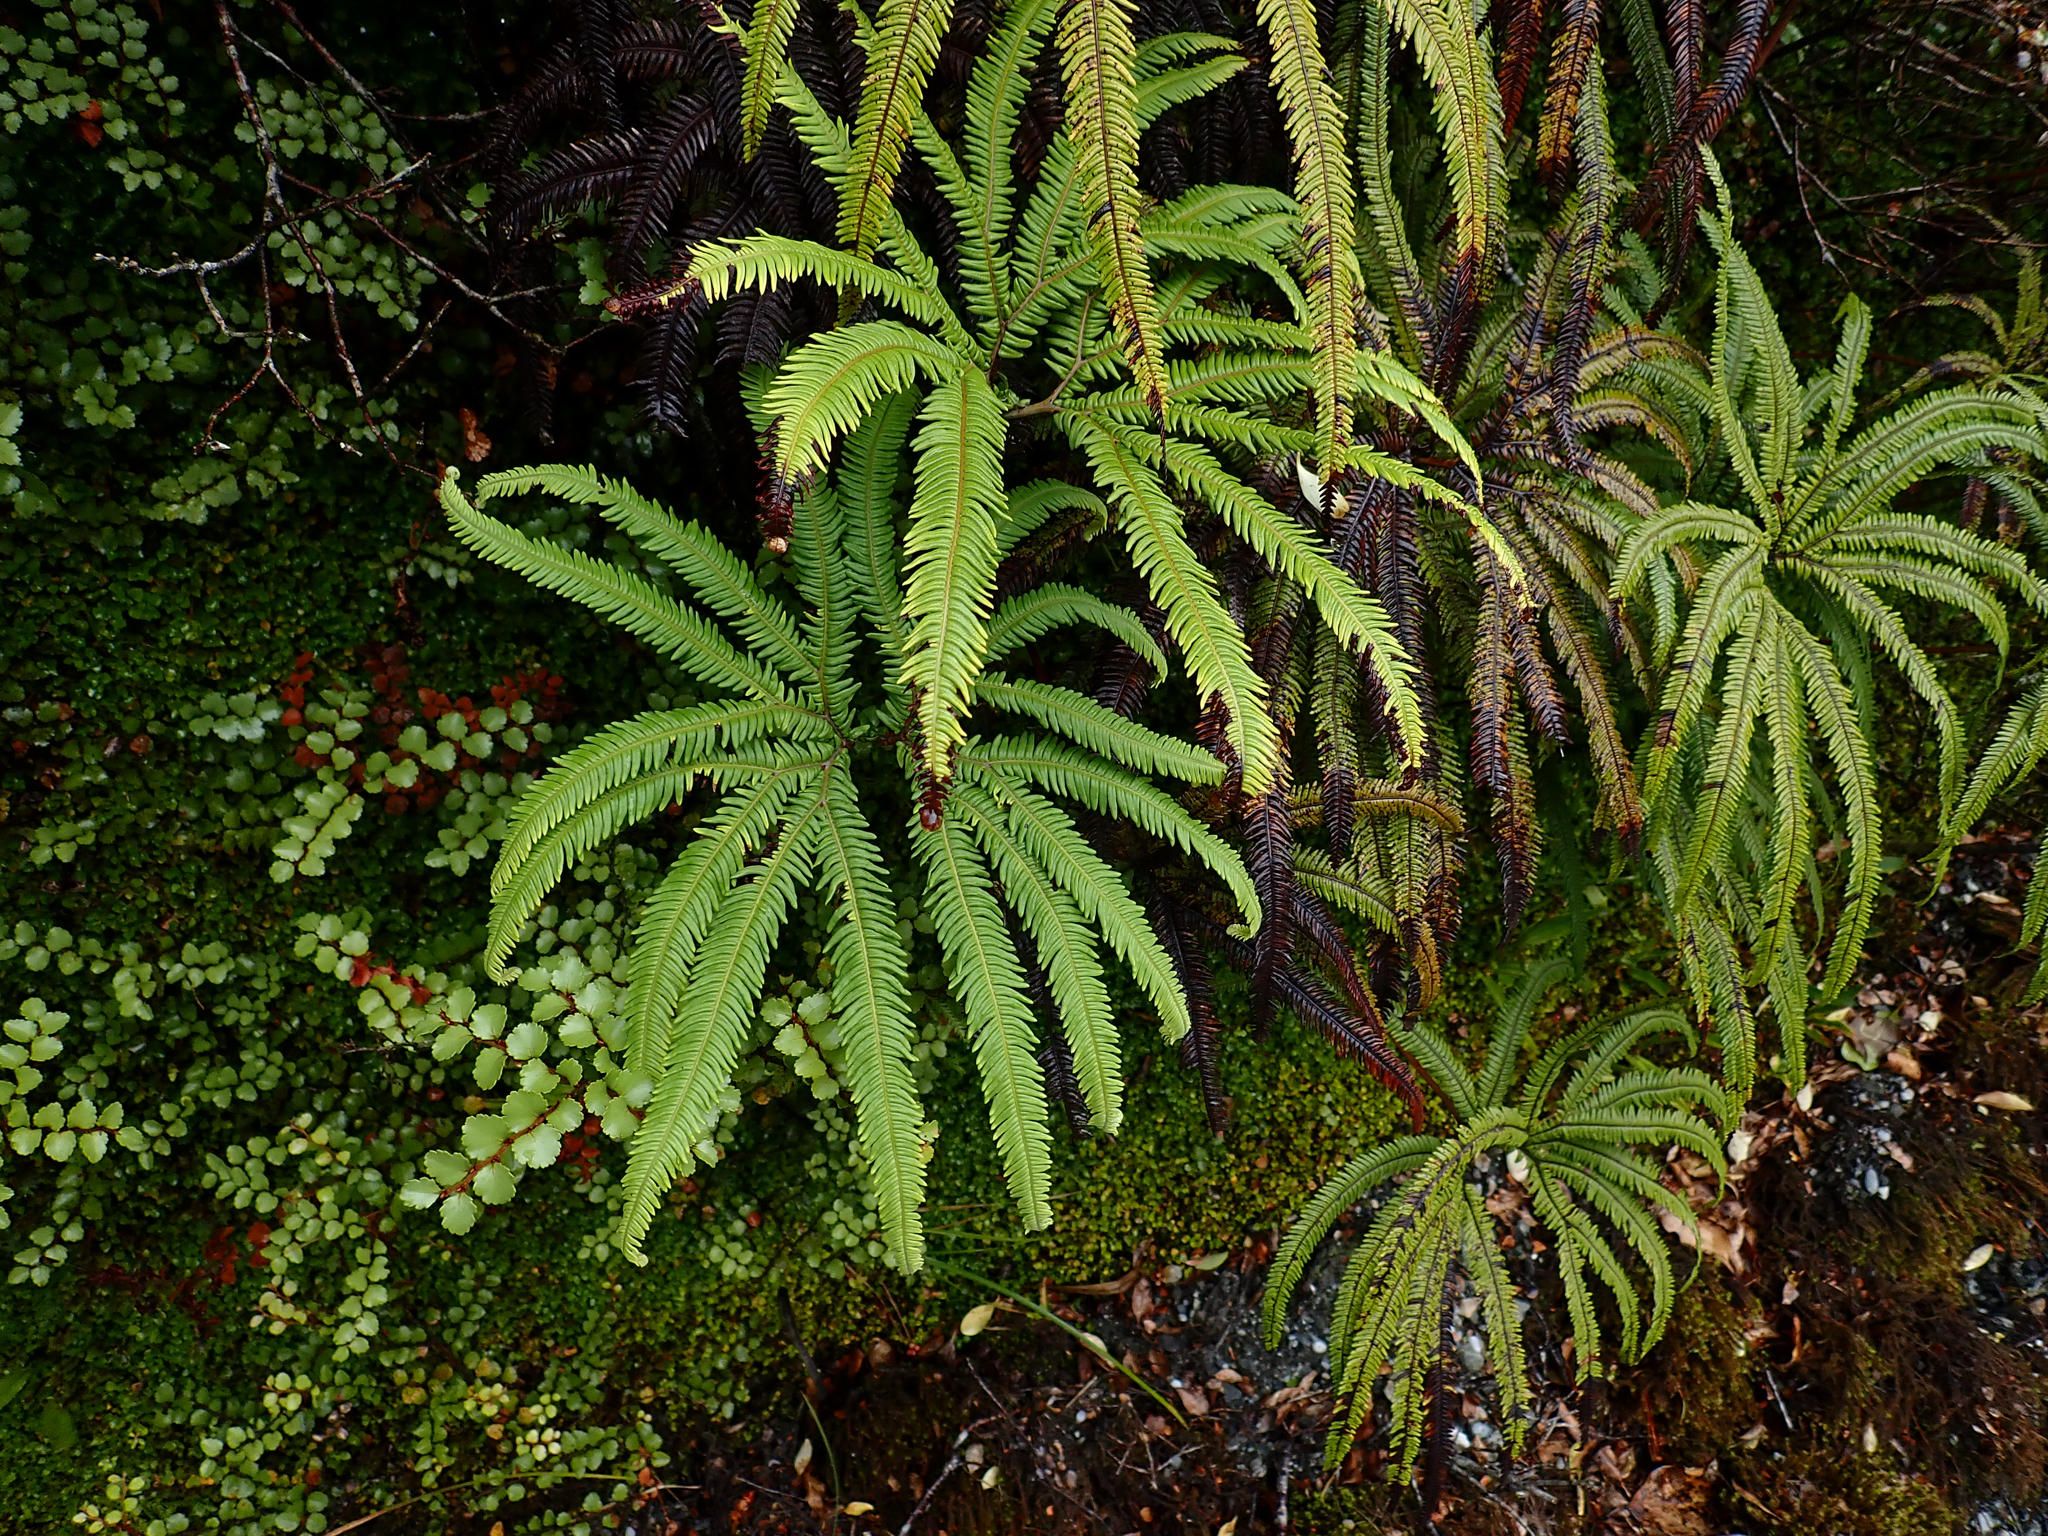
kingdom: Plantae
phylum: Tracheophyta
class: Polypodiopsida
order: Gleicheniales
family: Gleicheniaceae
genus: Sticherus
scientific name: Sticherus cunninghamii
